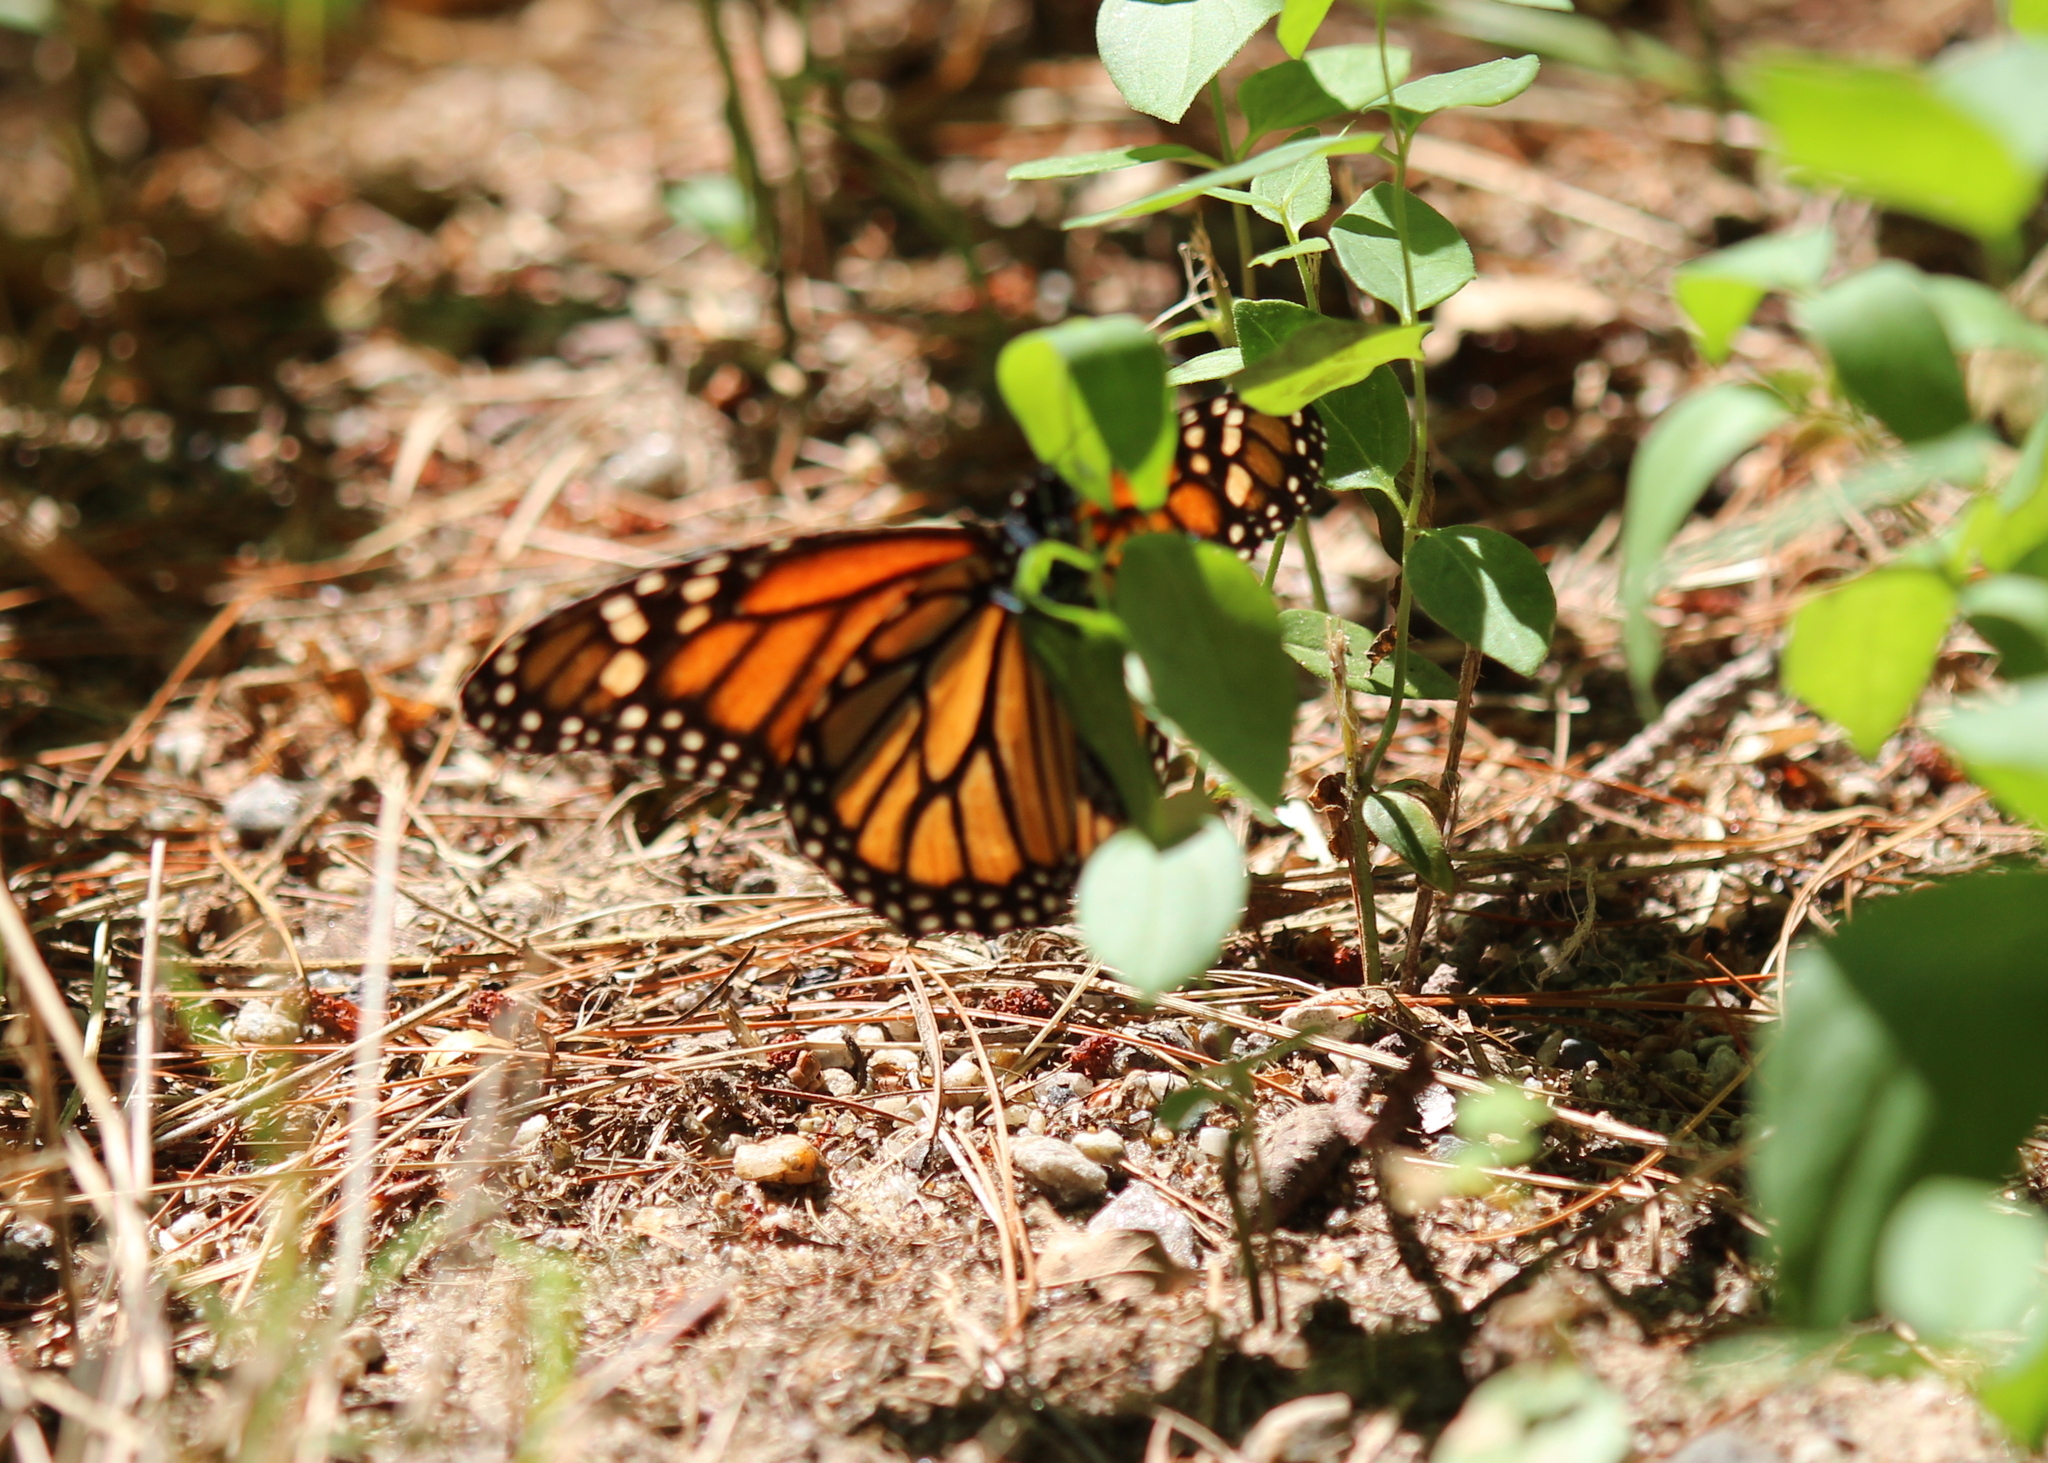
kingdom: Animalia
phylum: Arthropoda
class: Insecta
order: Lepidoptera
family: Nymphalidae
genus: Danaus
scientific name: Danaus plexippus
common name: Monarch
